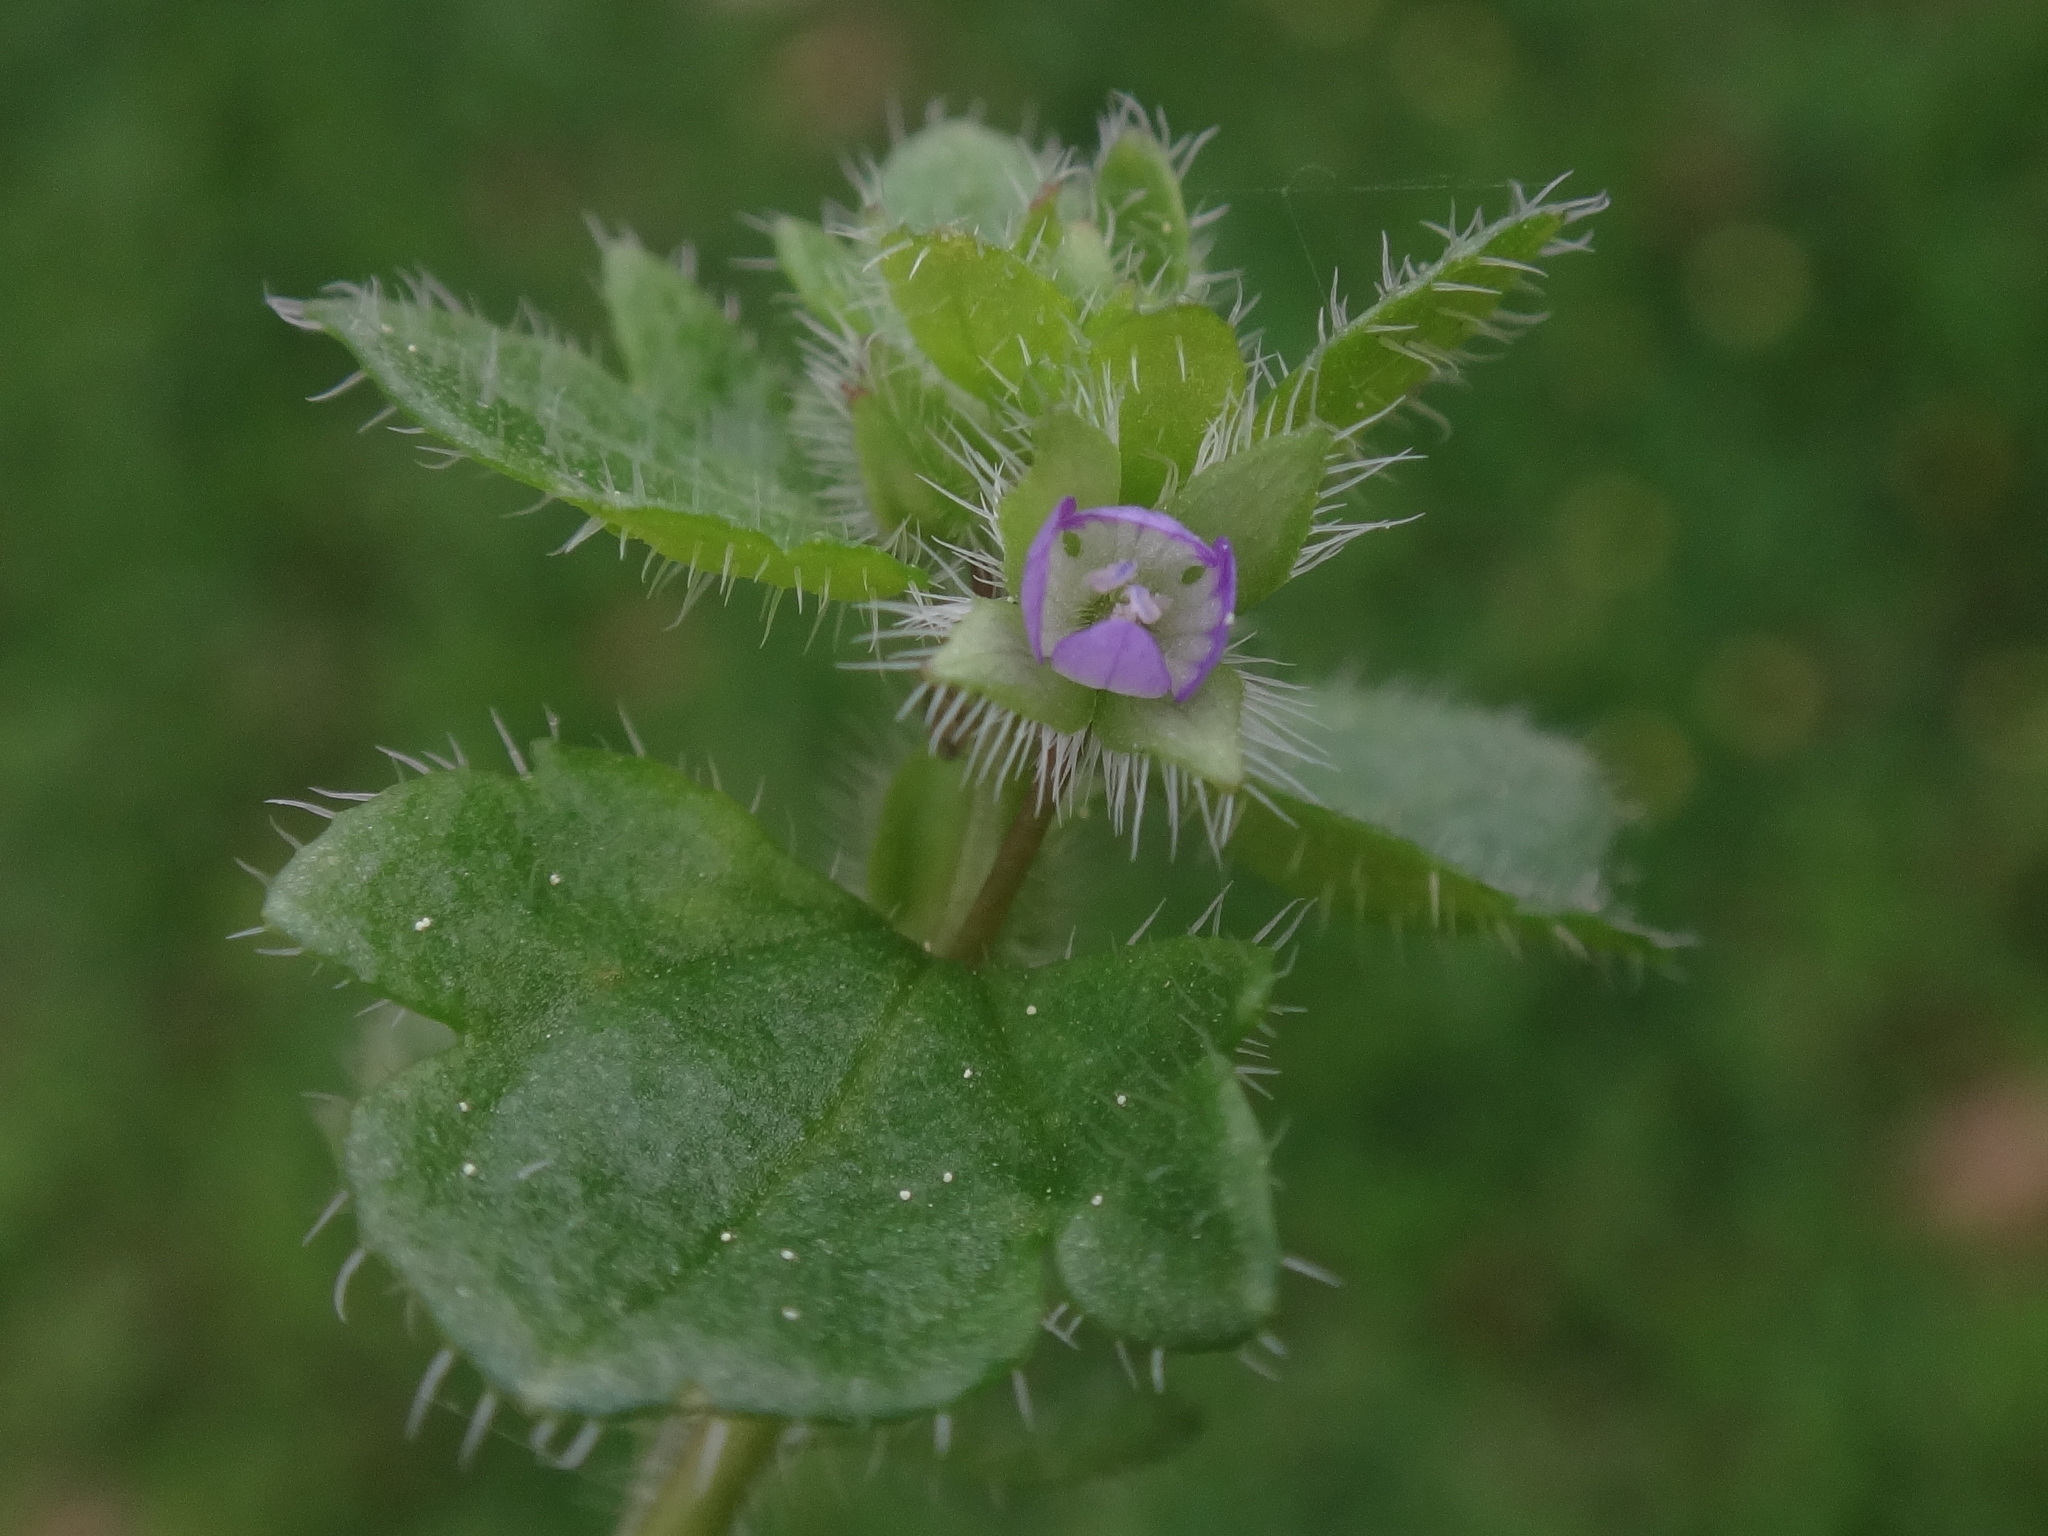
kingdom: Plantae
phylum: Tracheophyta
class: Magnoliopsida
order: Lamiales
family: Plantaginaceae
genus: Veronica
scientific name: Veronica hederifolia
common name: Ivy-leaved speedwell
